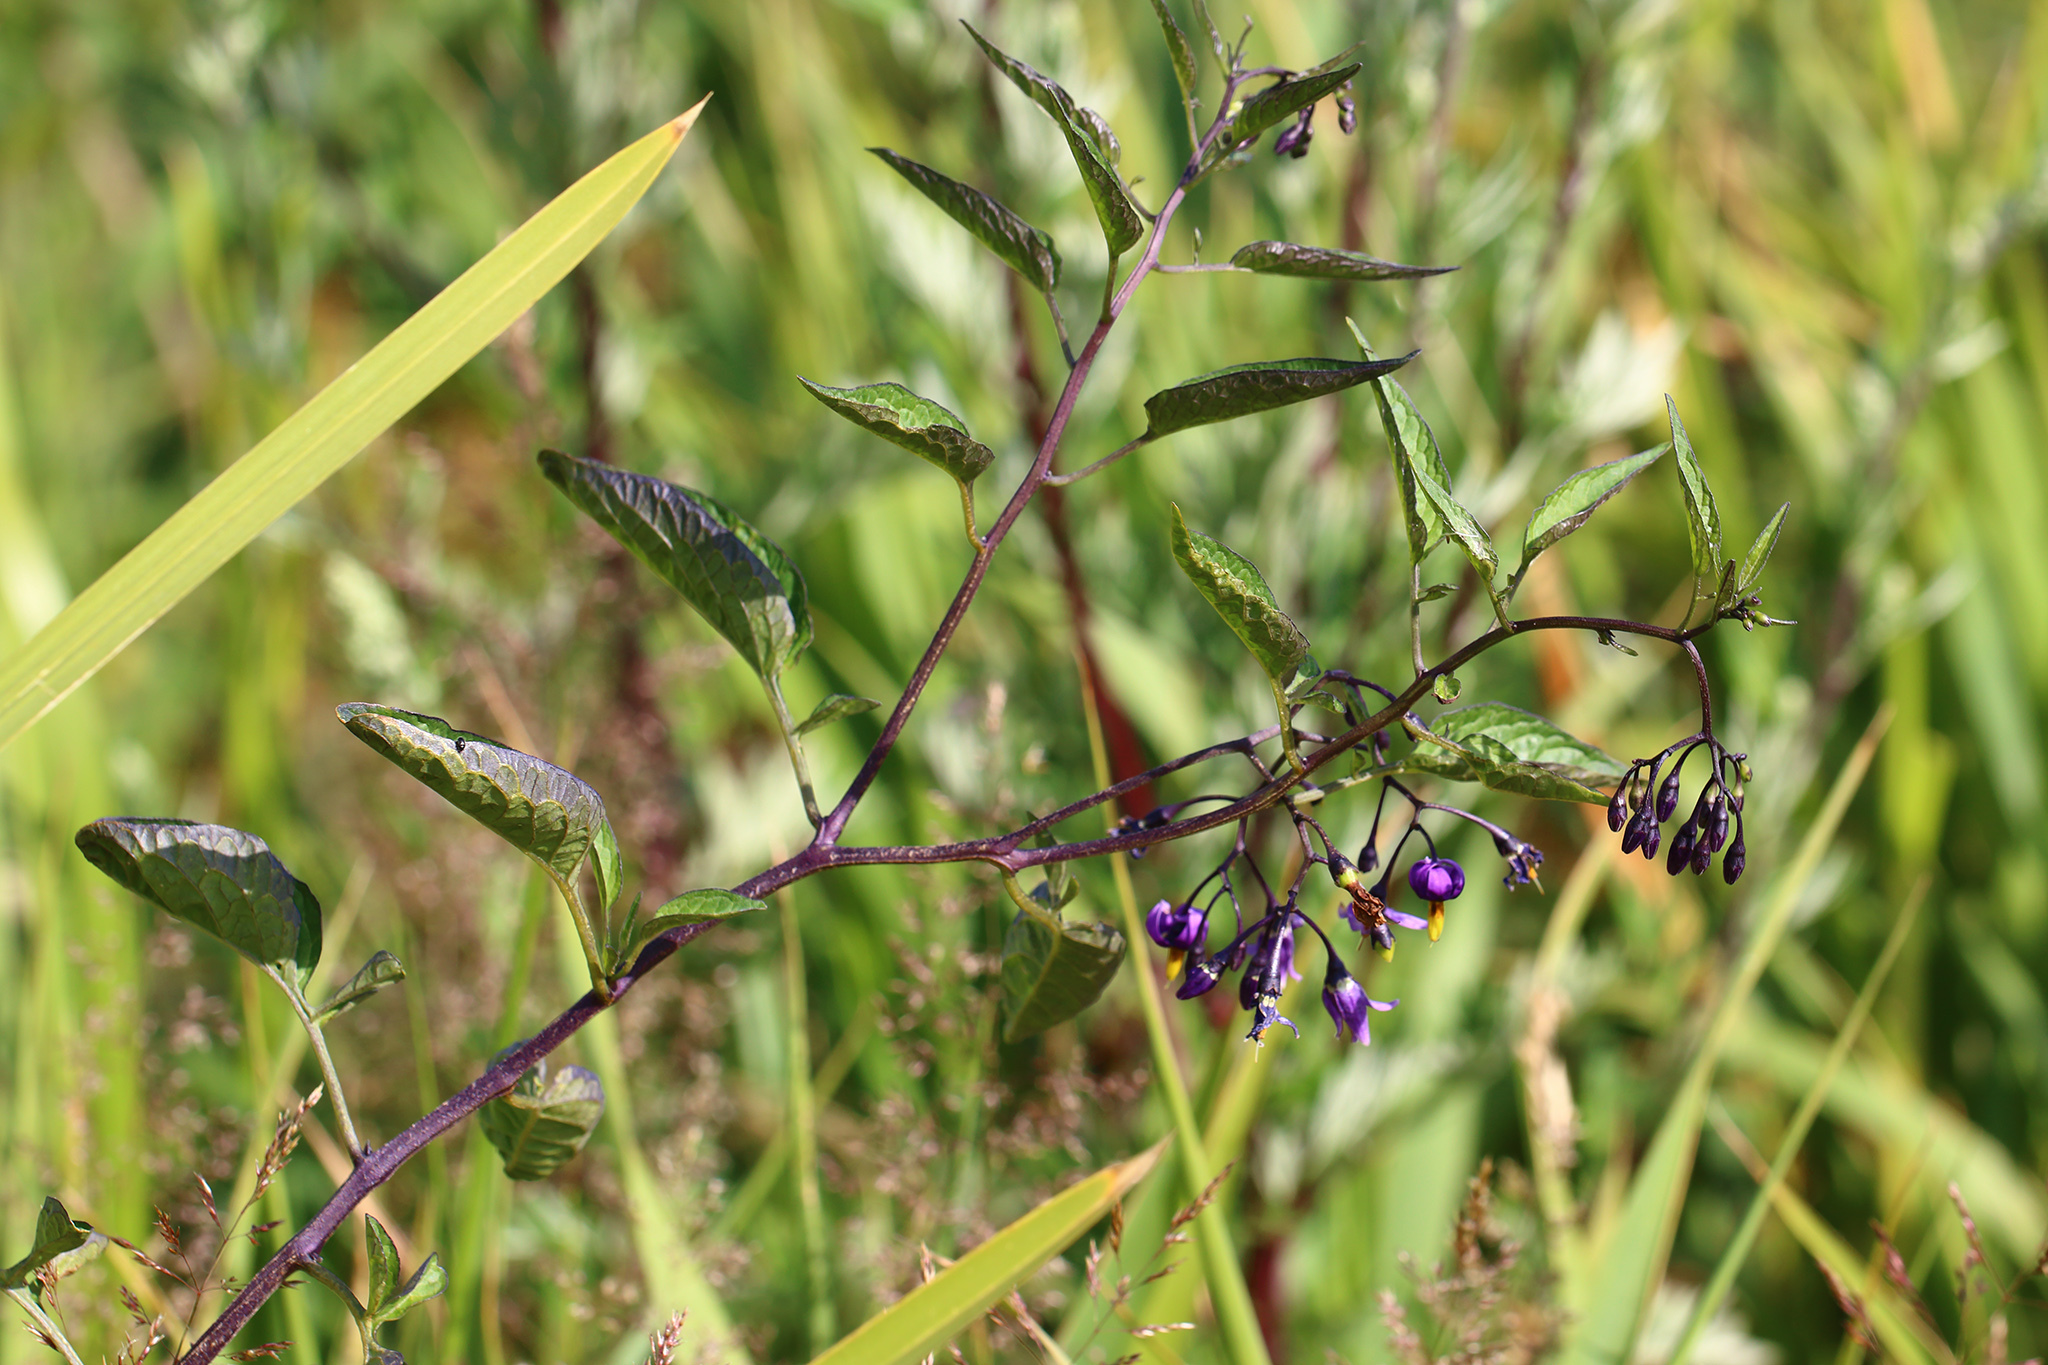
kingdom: Plantae
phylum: Tracheophyta
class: Magnoliopsida
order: Solanales
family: Solanaceae
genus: Solanum
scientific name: Solanum dulcamara
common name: Climbing nightshade
